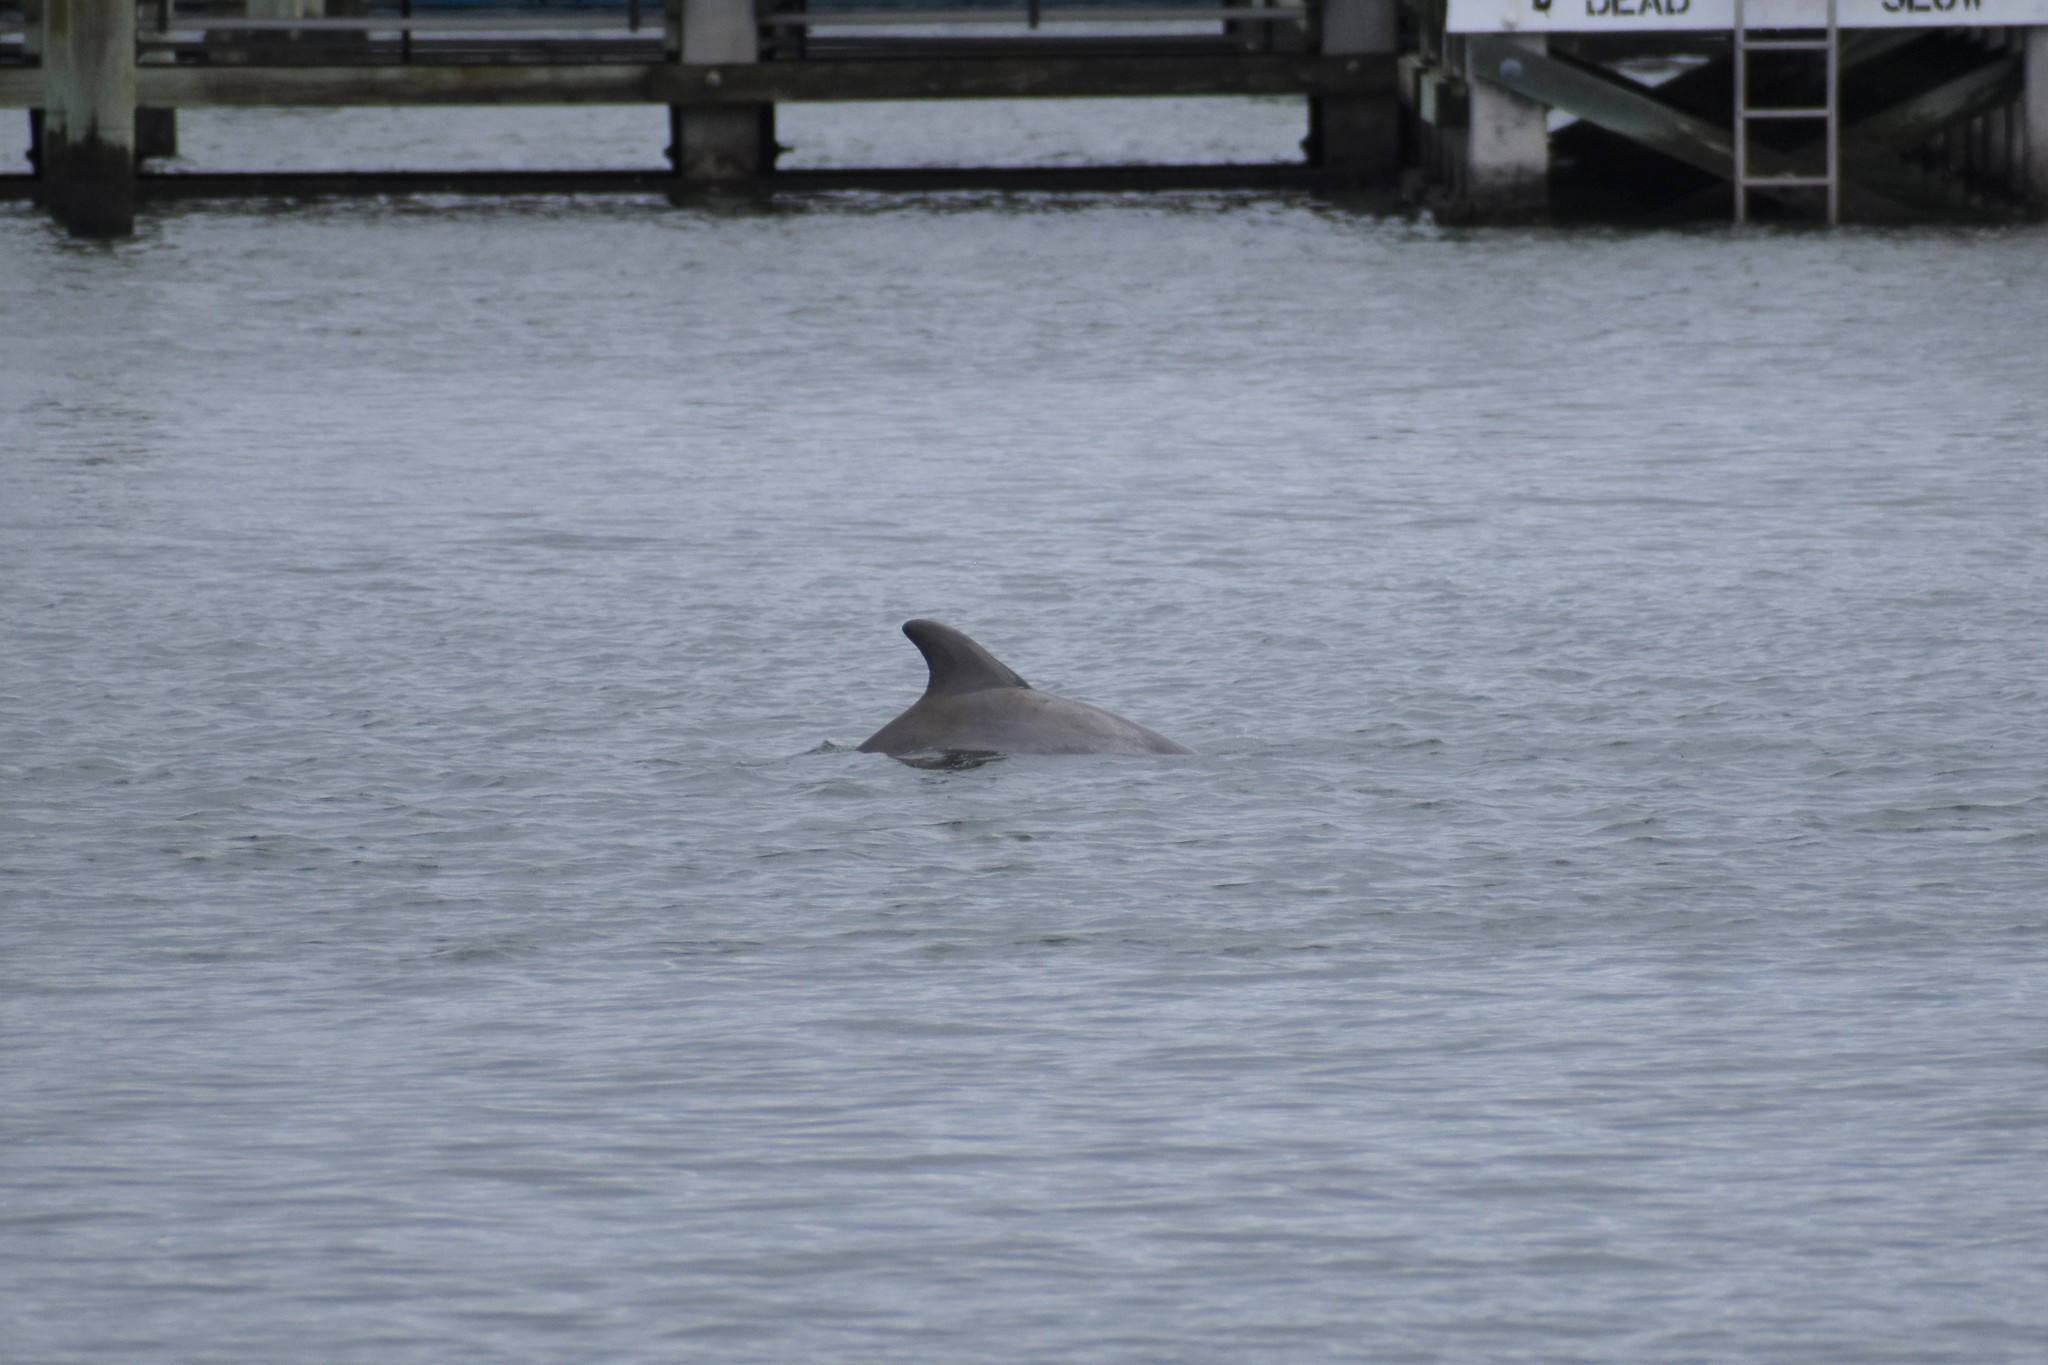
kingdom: Animalia
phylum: Chordata
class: Mammalia
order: Cetacea
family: Delphinidae
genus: Tursiops
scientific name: Tursiops truncatus
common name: Bottlenose dolphin
